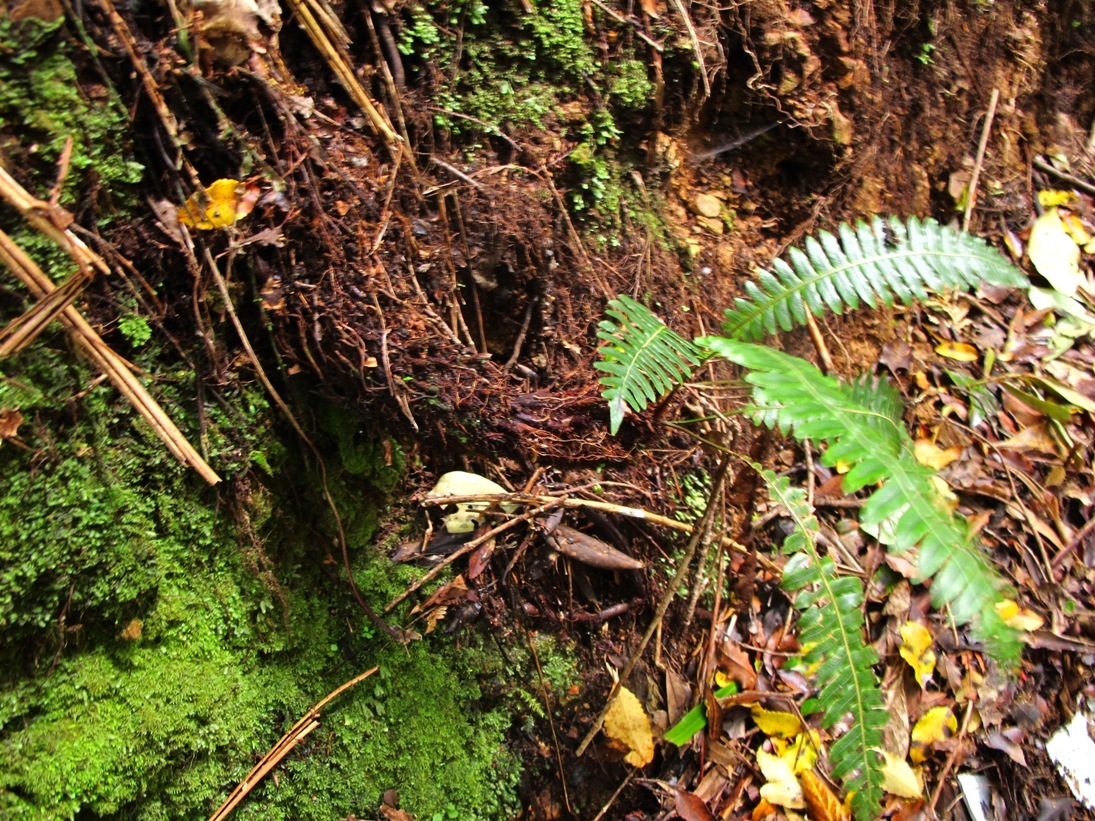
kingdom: Plantae
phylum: Tracheophyta
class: Polypodiopsida
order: Polypodiales
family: Blechnaceae
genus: Lomaria
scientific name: Lomaria discolor
